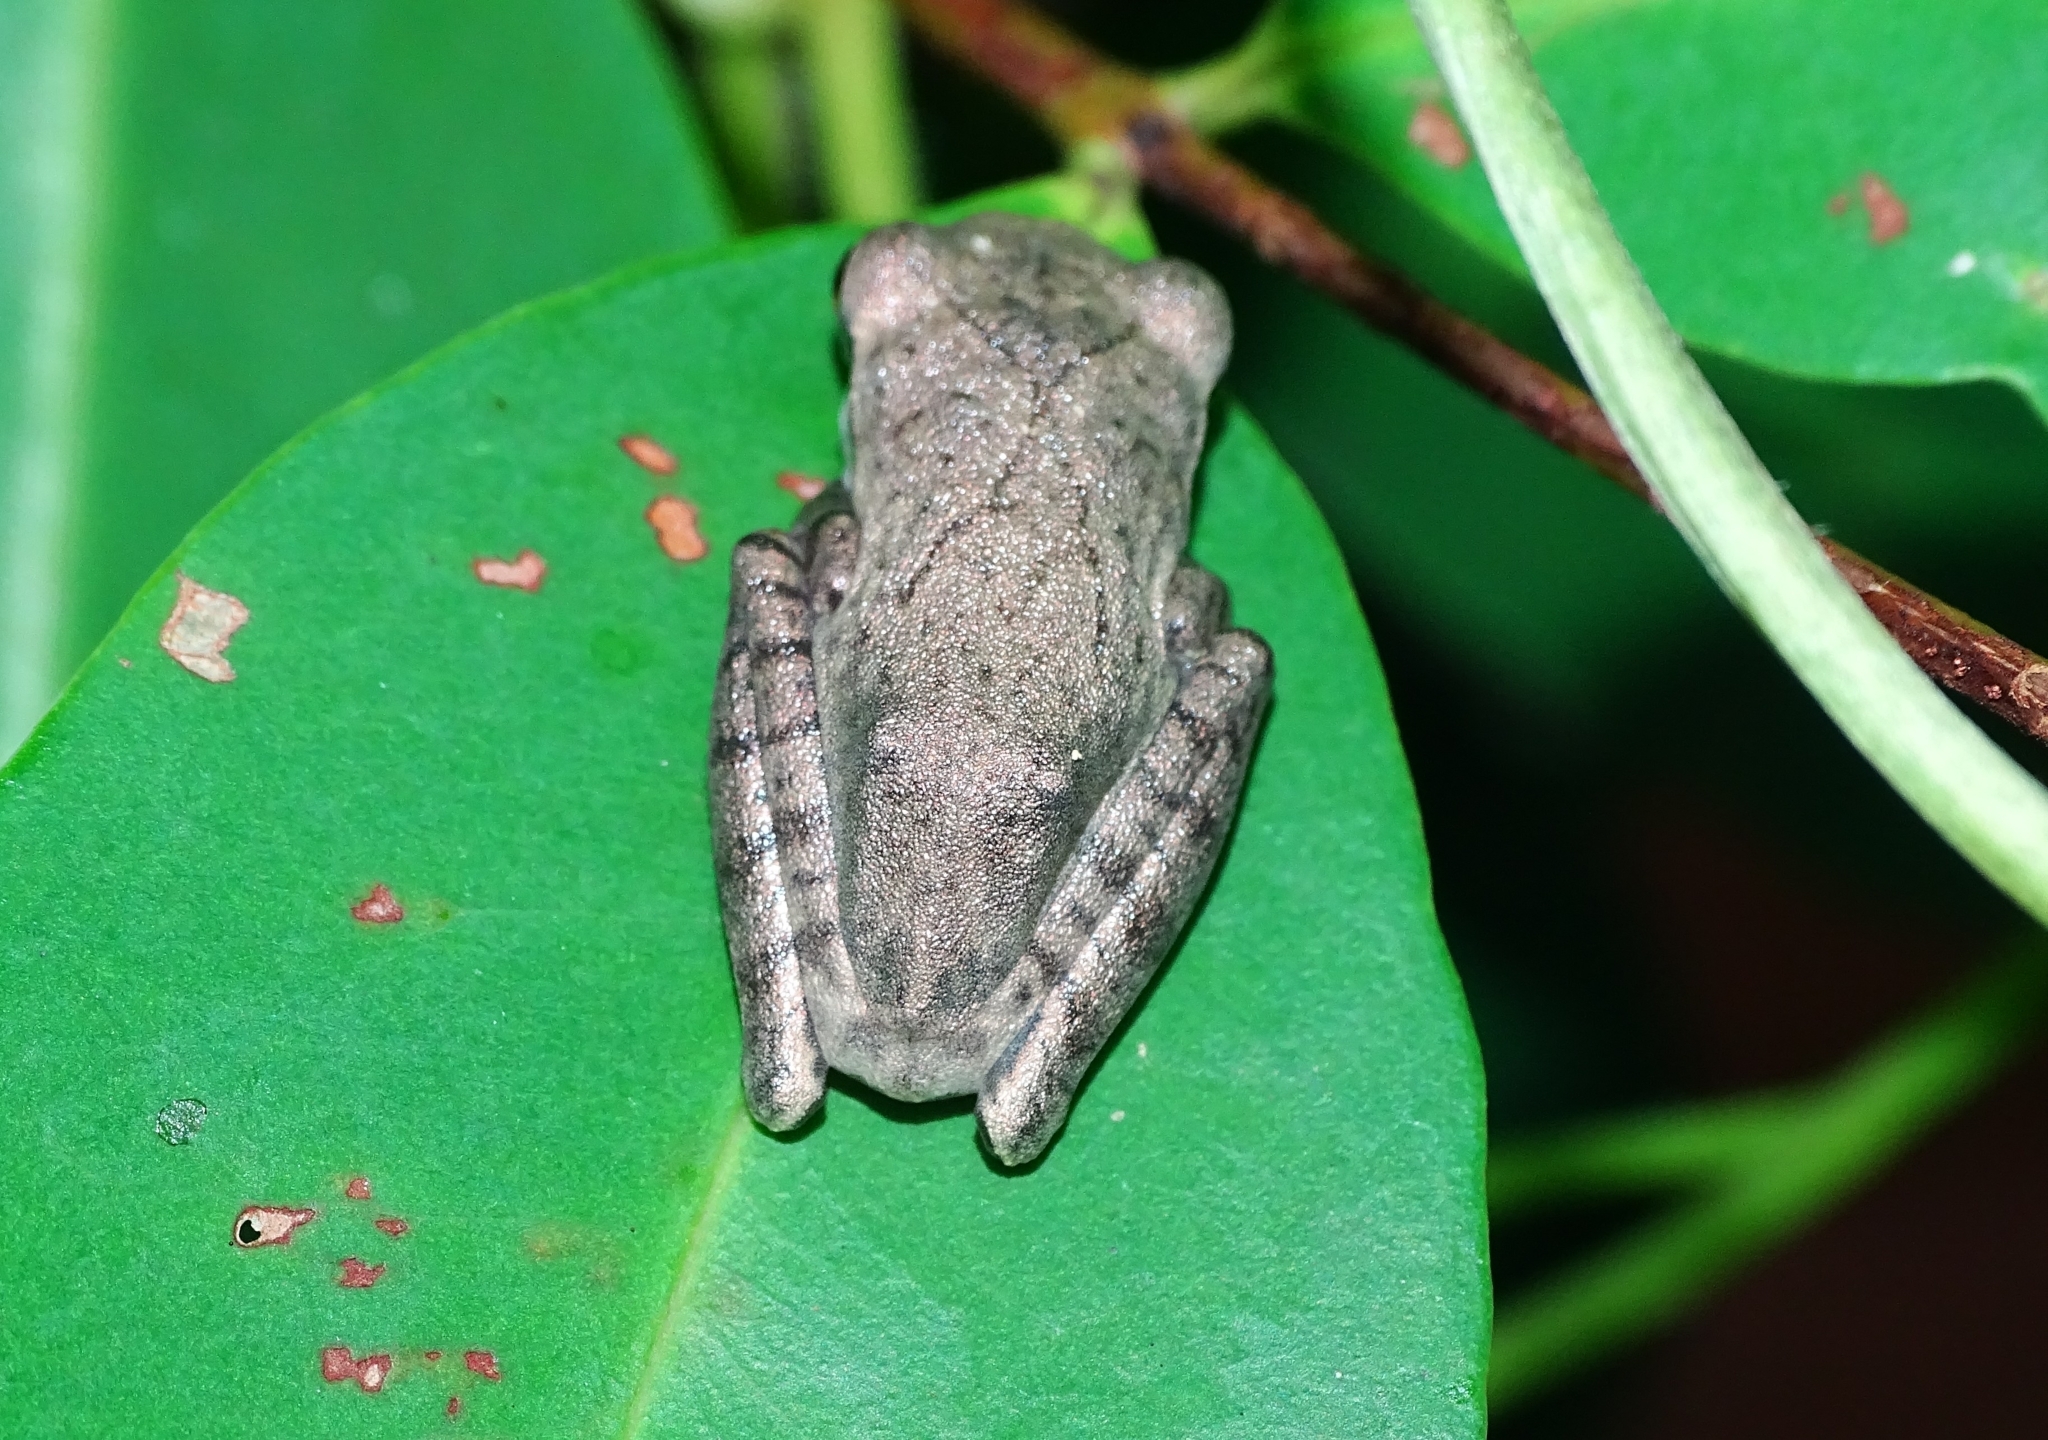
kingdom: Animalia
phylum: Chordata
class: Amphibia
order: Anura
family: Rhacophoridae
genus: Polypedates
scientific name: Polypedates occidentalis
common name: Charpa tree frog
